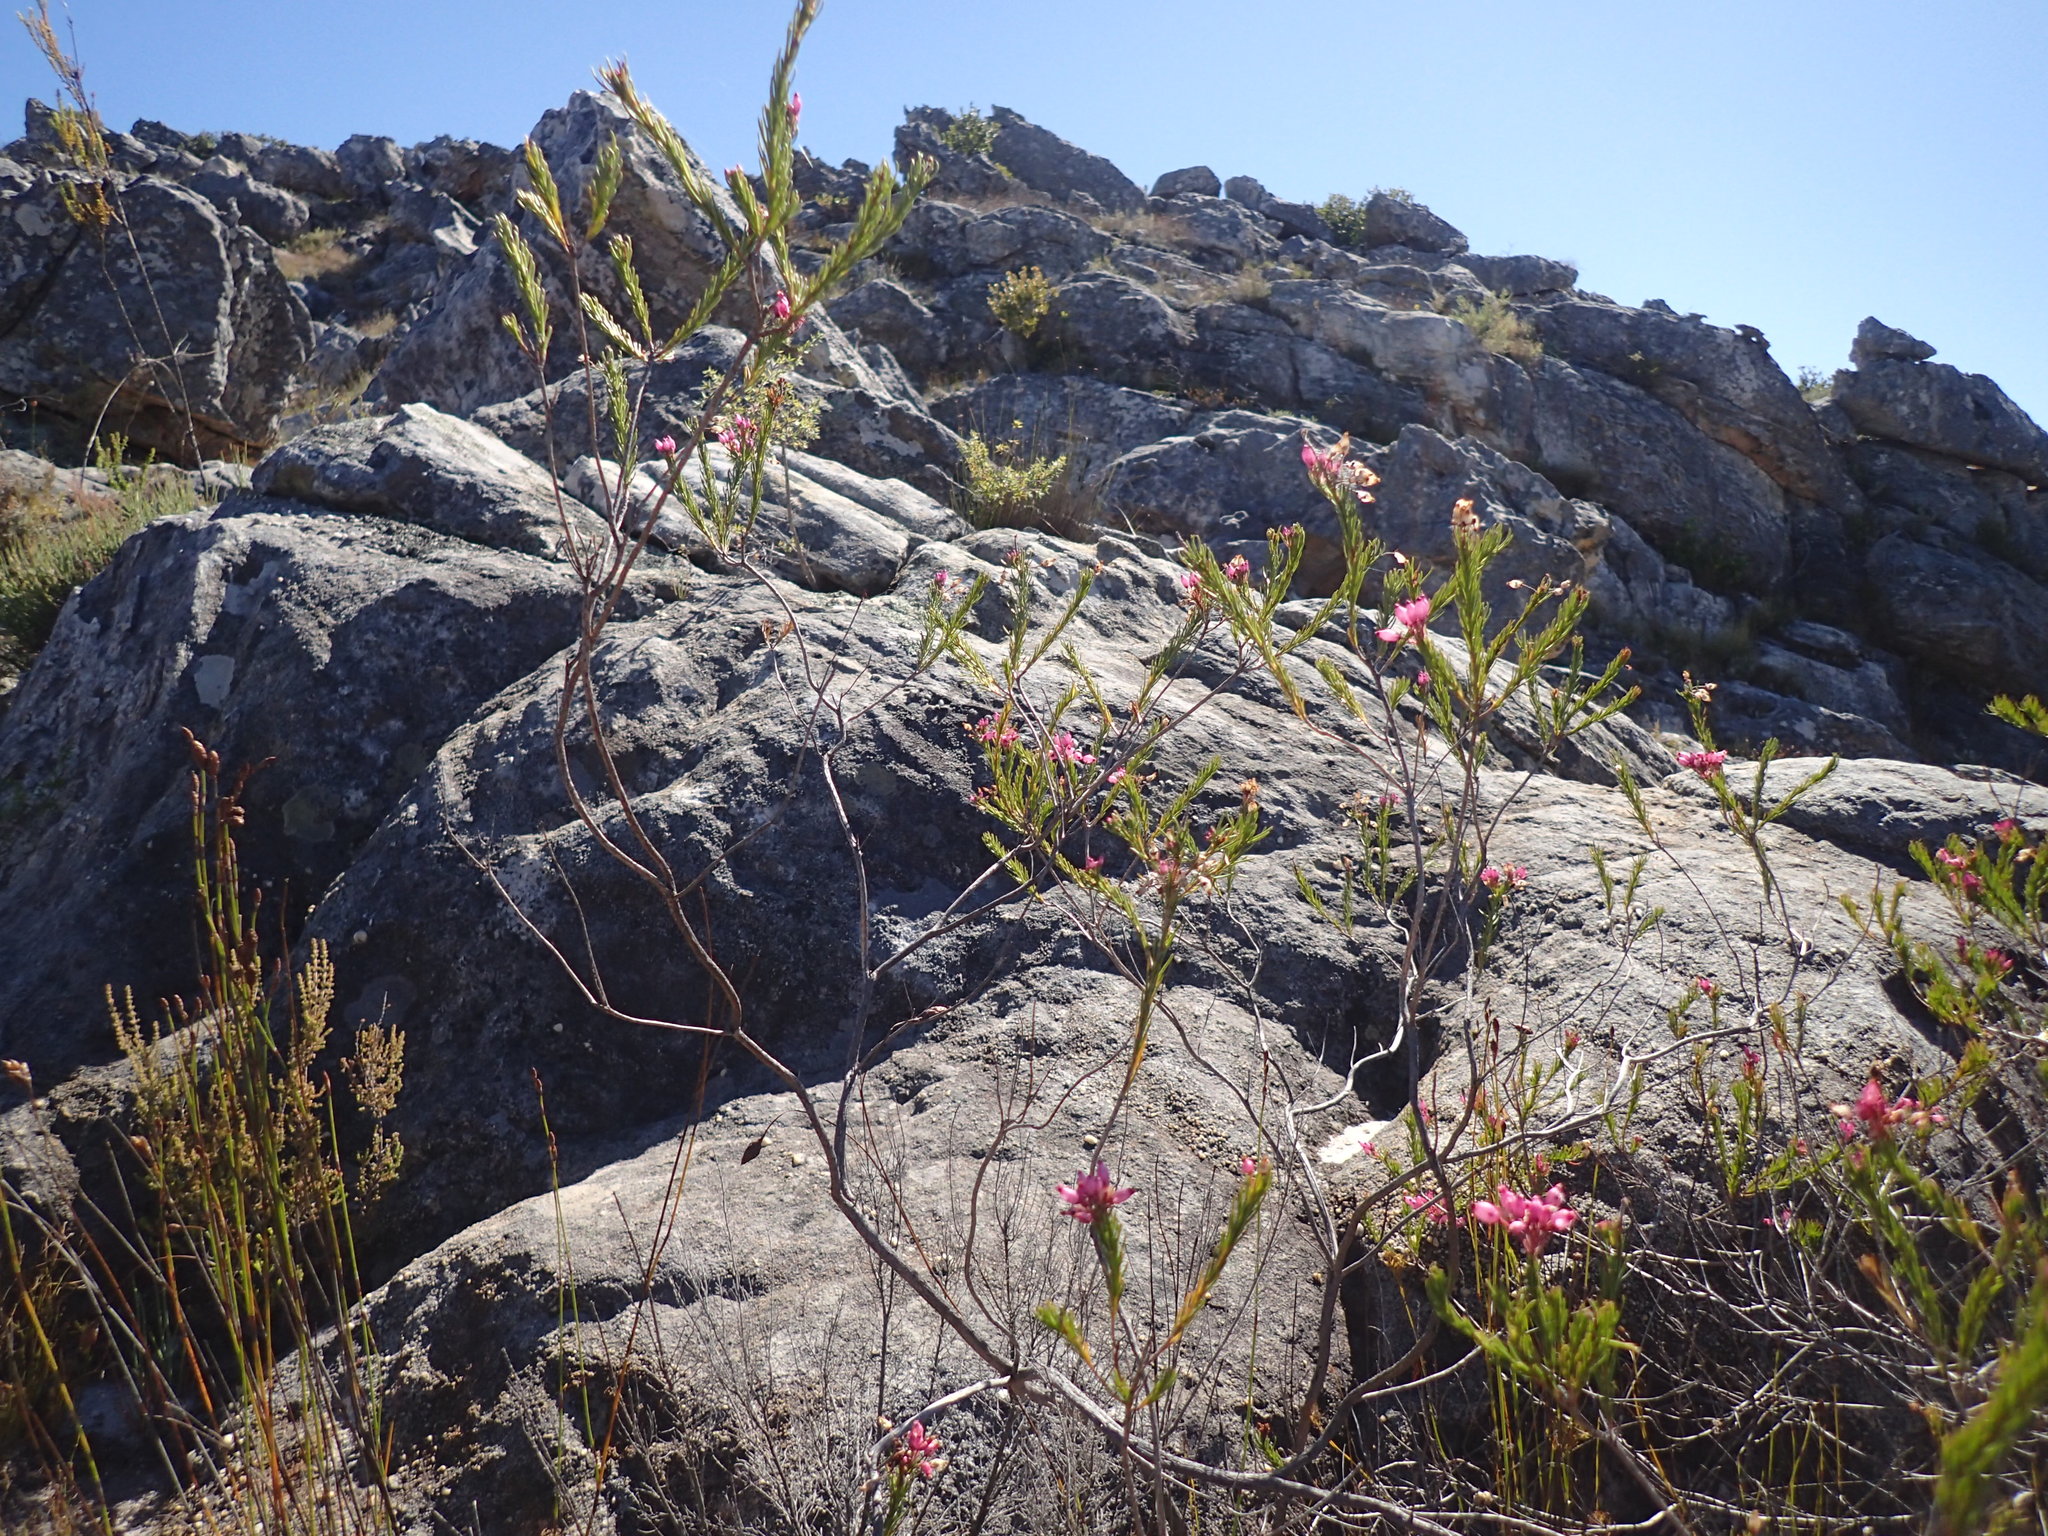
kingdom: Plantae
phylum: Tracheophyta
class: Magnoliopsida
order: Ericales
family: Ericaceae
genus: Erica
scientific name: Erica inflata
